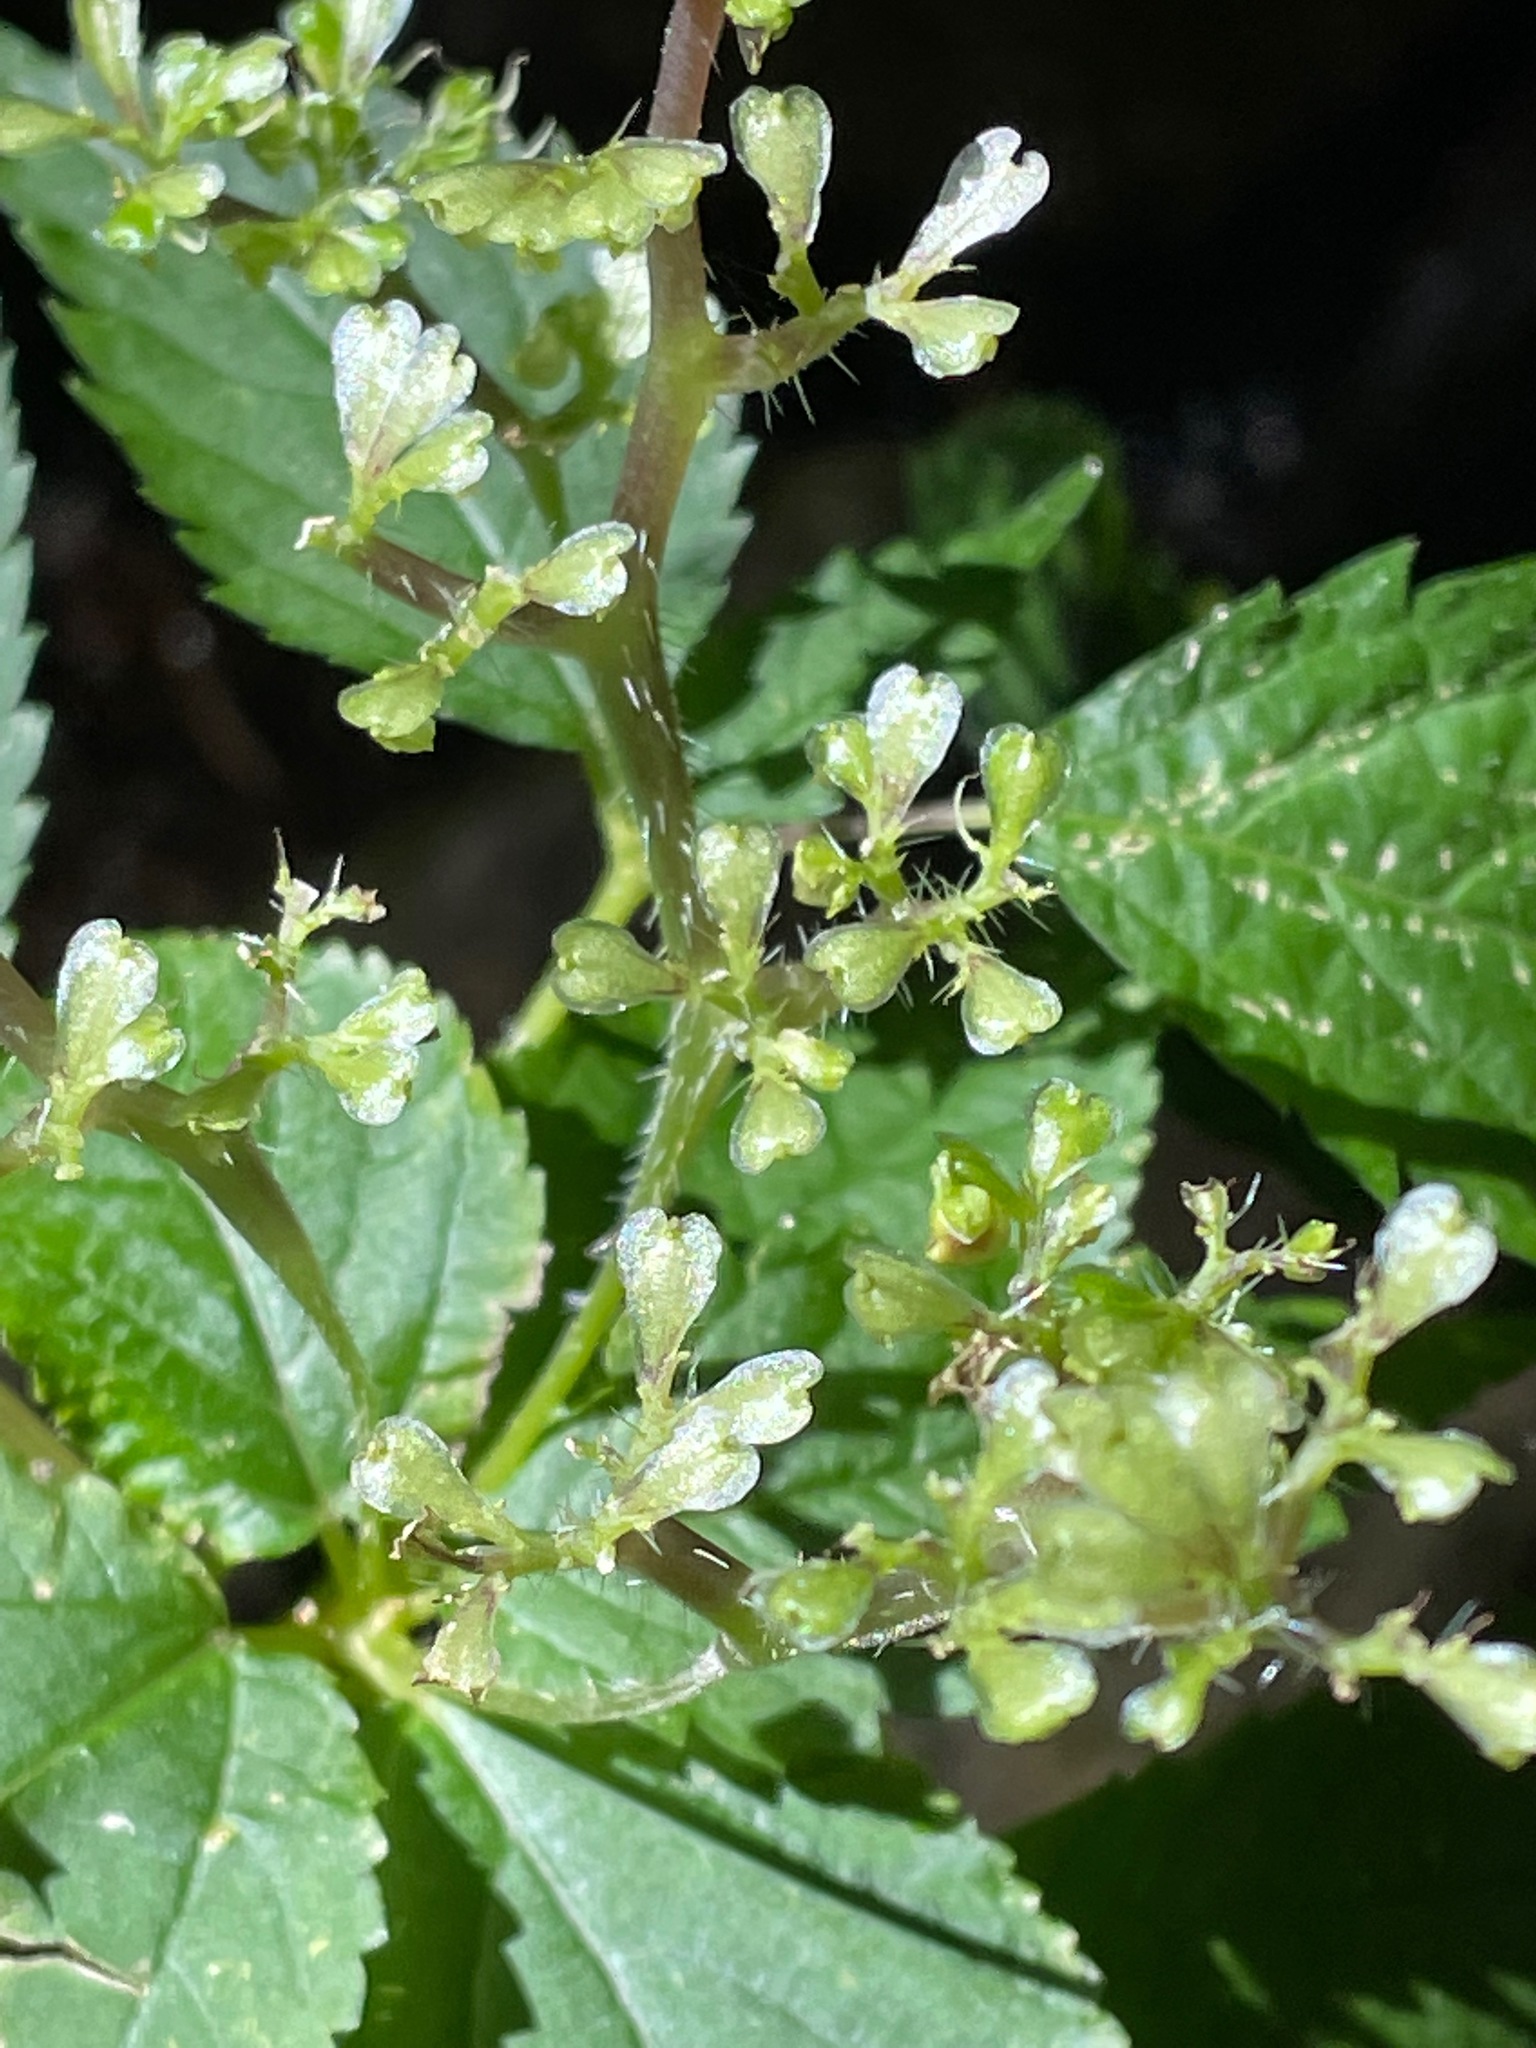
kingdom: Plantae
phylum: Tracheophyta
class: Magnoliopsida
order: Rosales
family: Urticaceae
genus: Laportea
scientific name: Laportea canadensis
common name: Canada nettle
